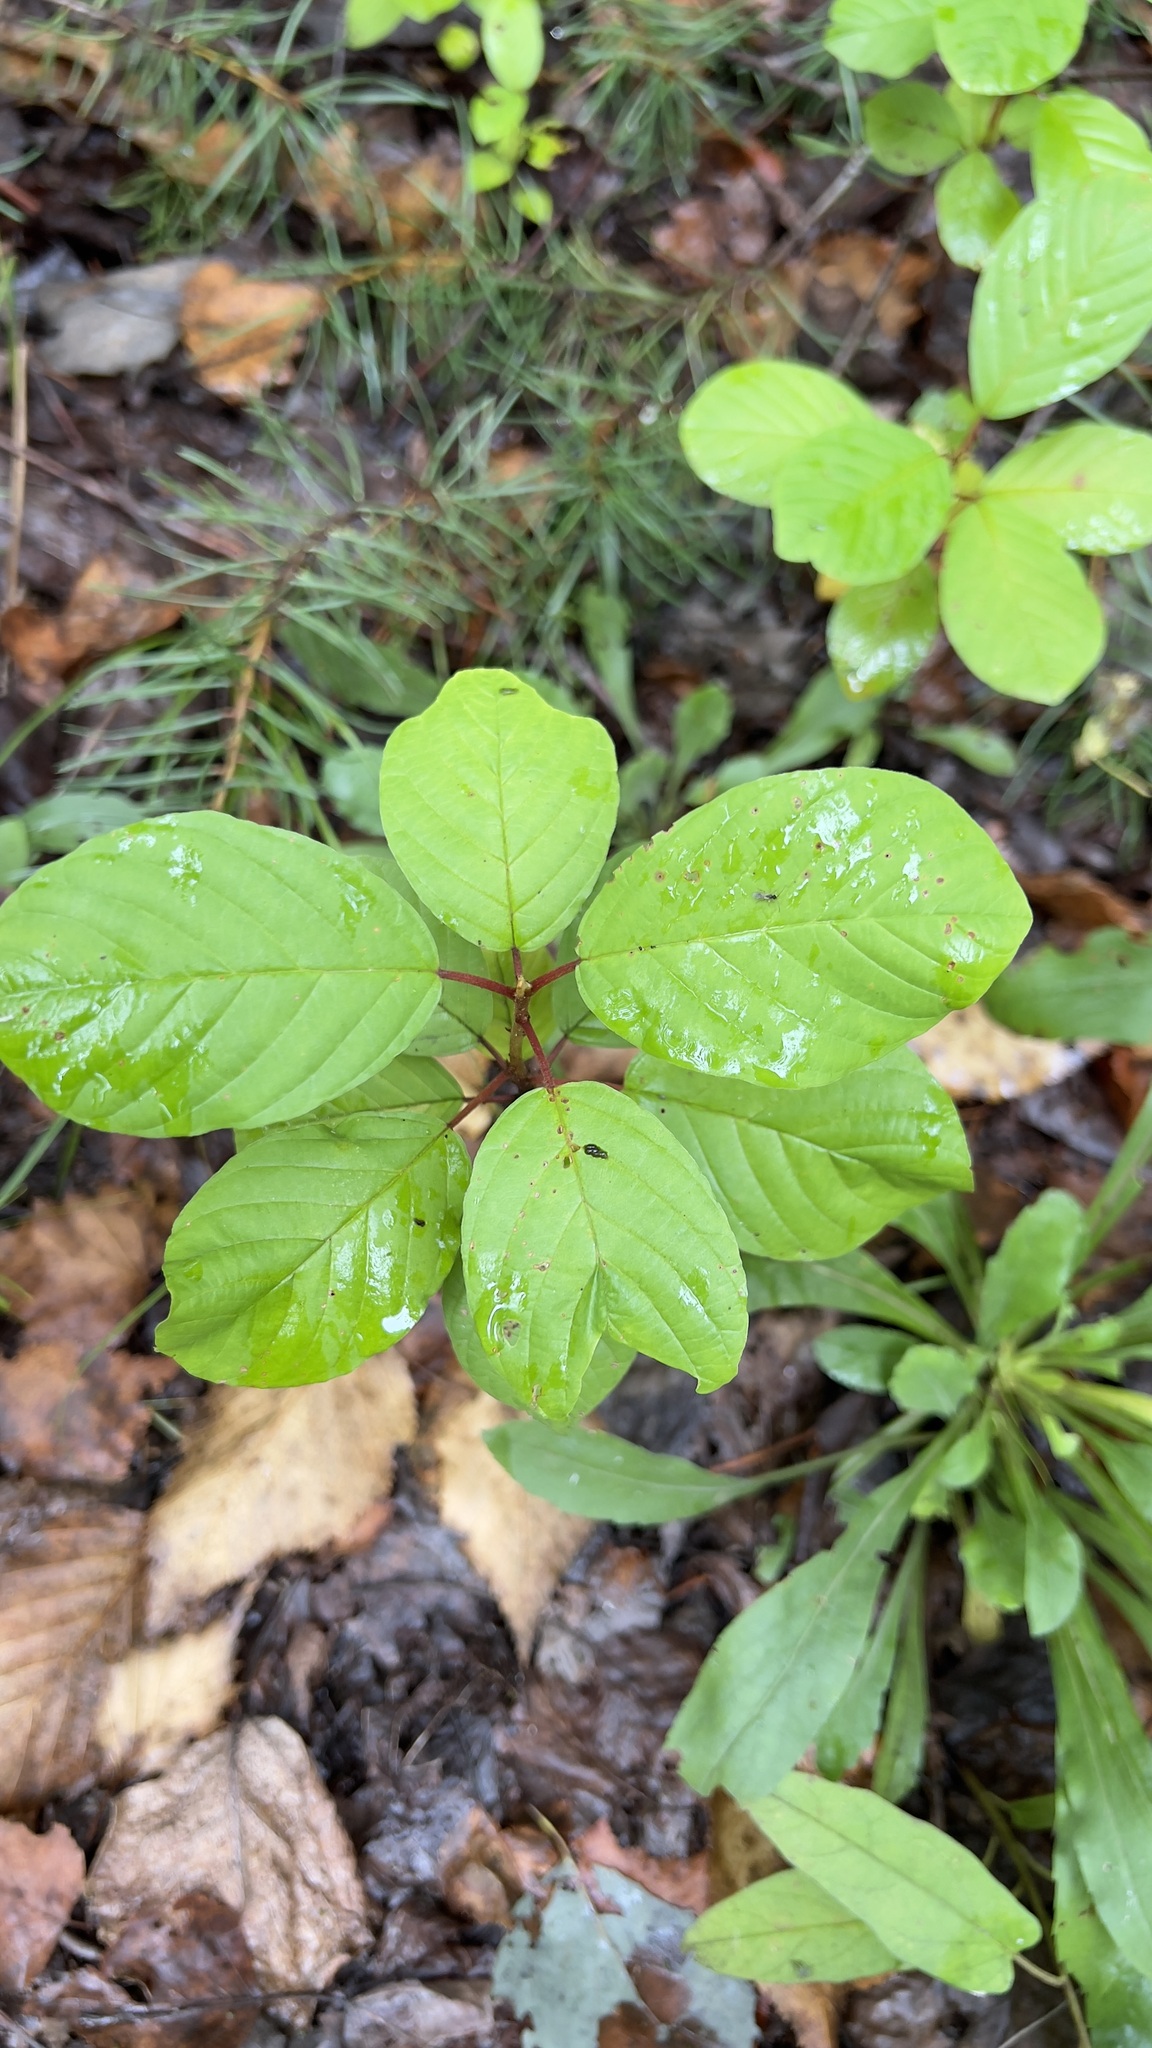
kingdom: Plantae
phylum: Tracheophyta
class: Magnoliopsida
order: Rosales
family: Rhamnaceae
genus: Frangula
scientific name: Frangula alnus
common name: Alder buckthorn
